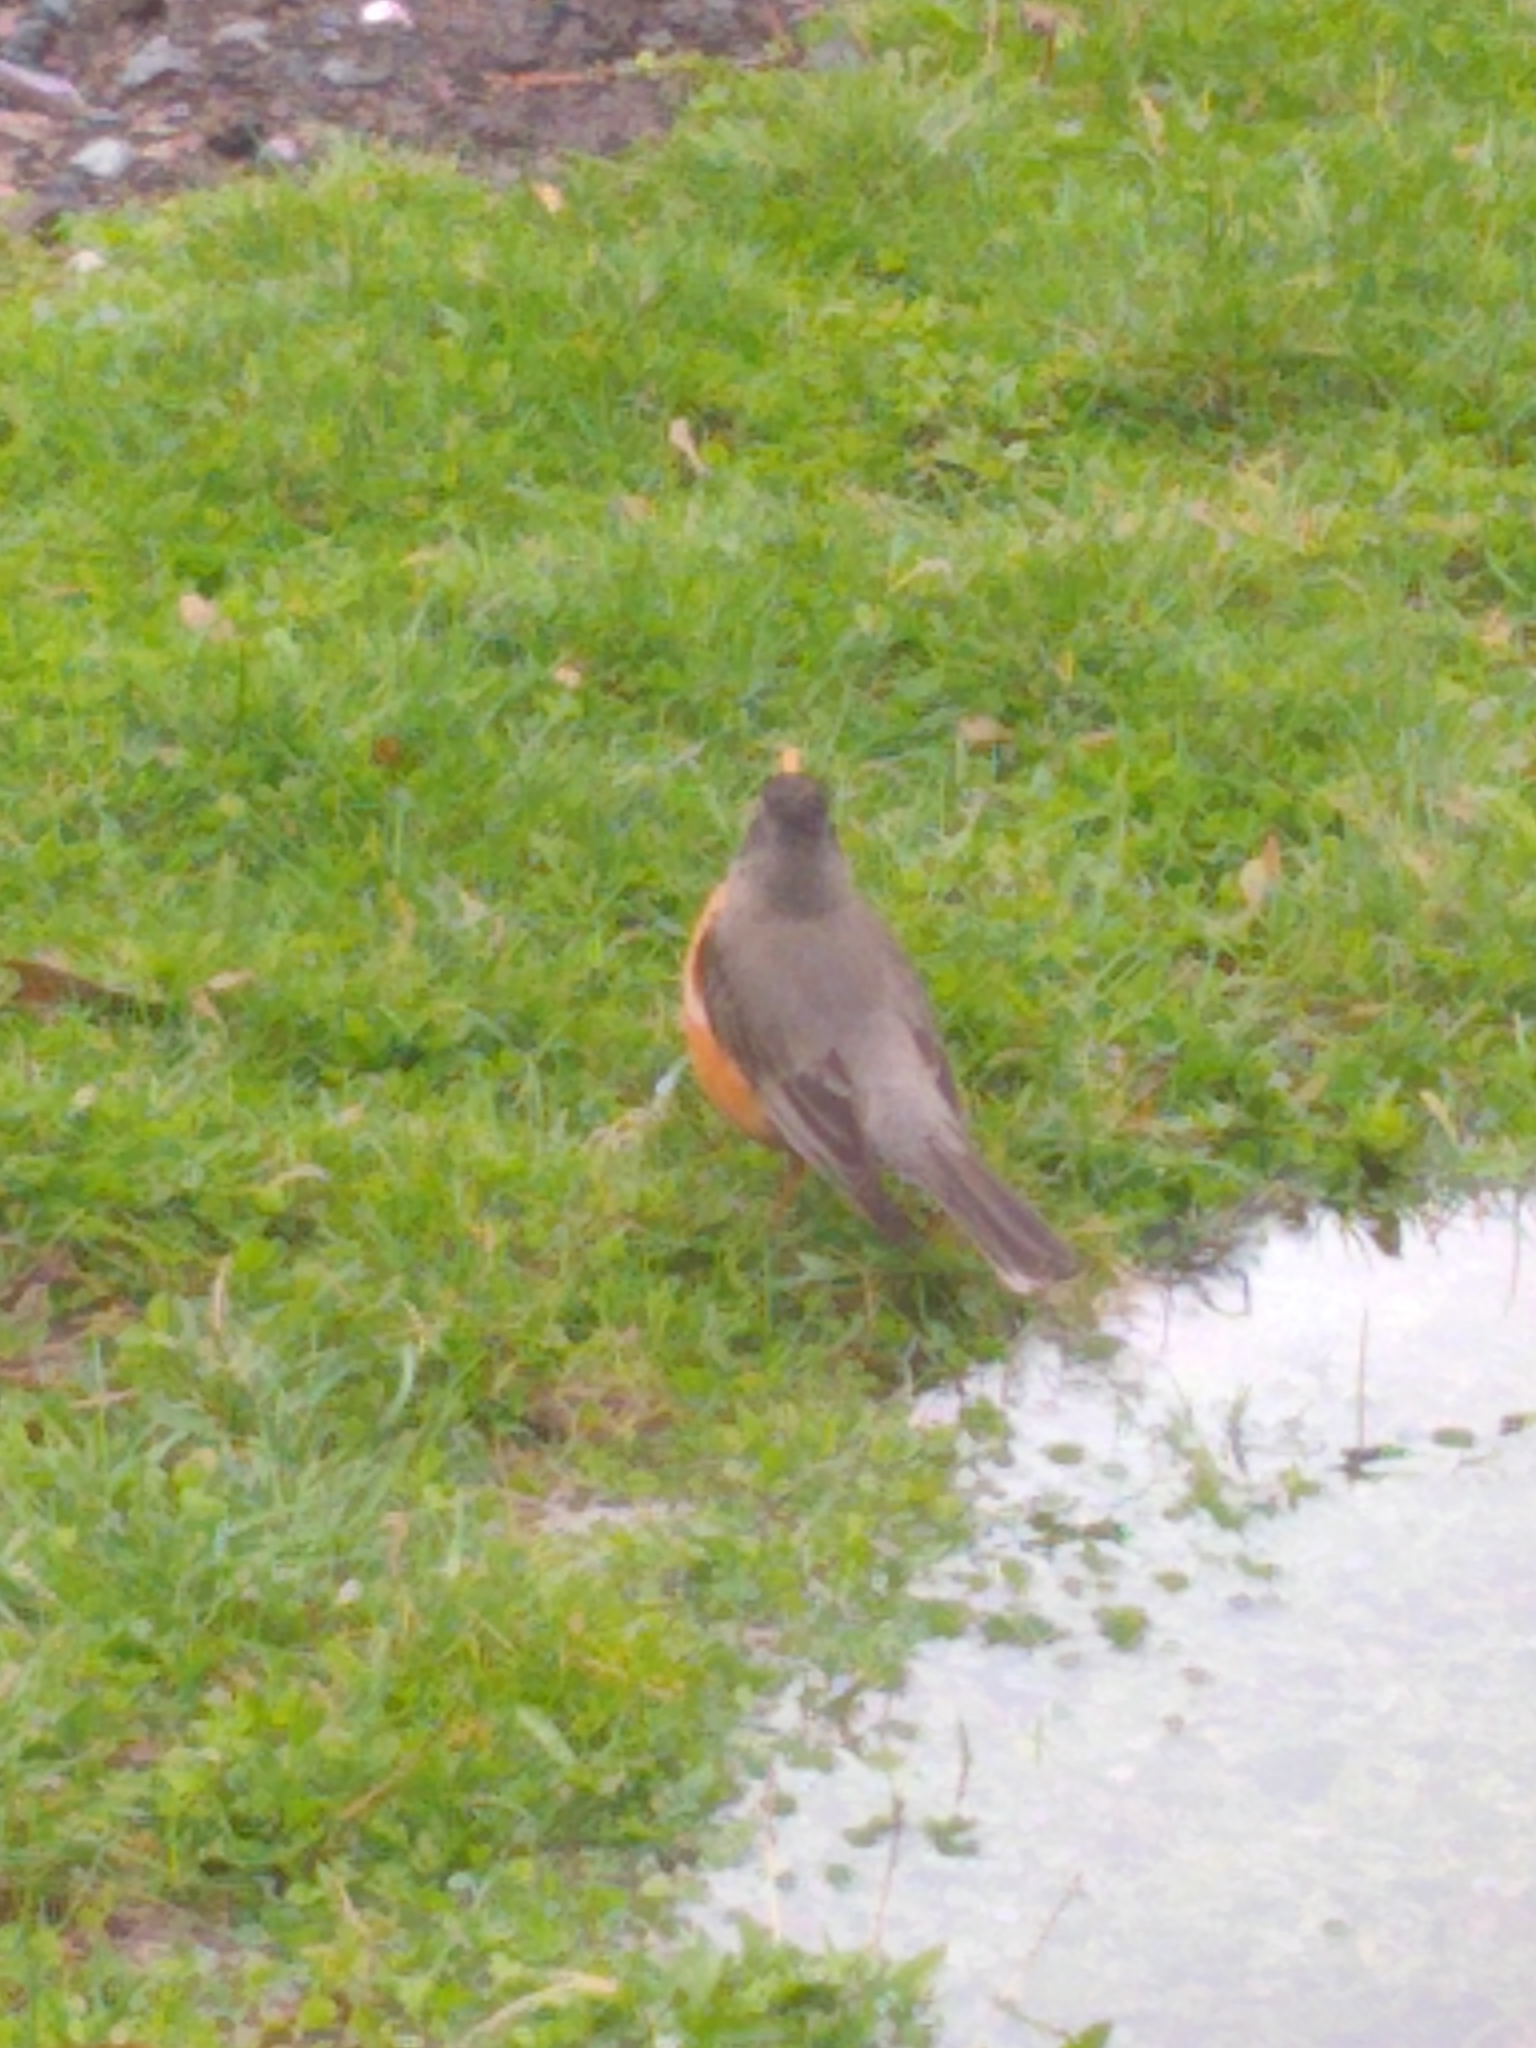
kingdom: Animalia
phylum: Chordata
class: Aves
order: Passeriformes
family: Turdidae
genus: Turdus
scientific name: Turdus migratorius
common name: American robin
